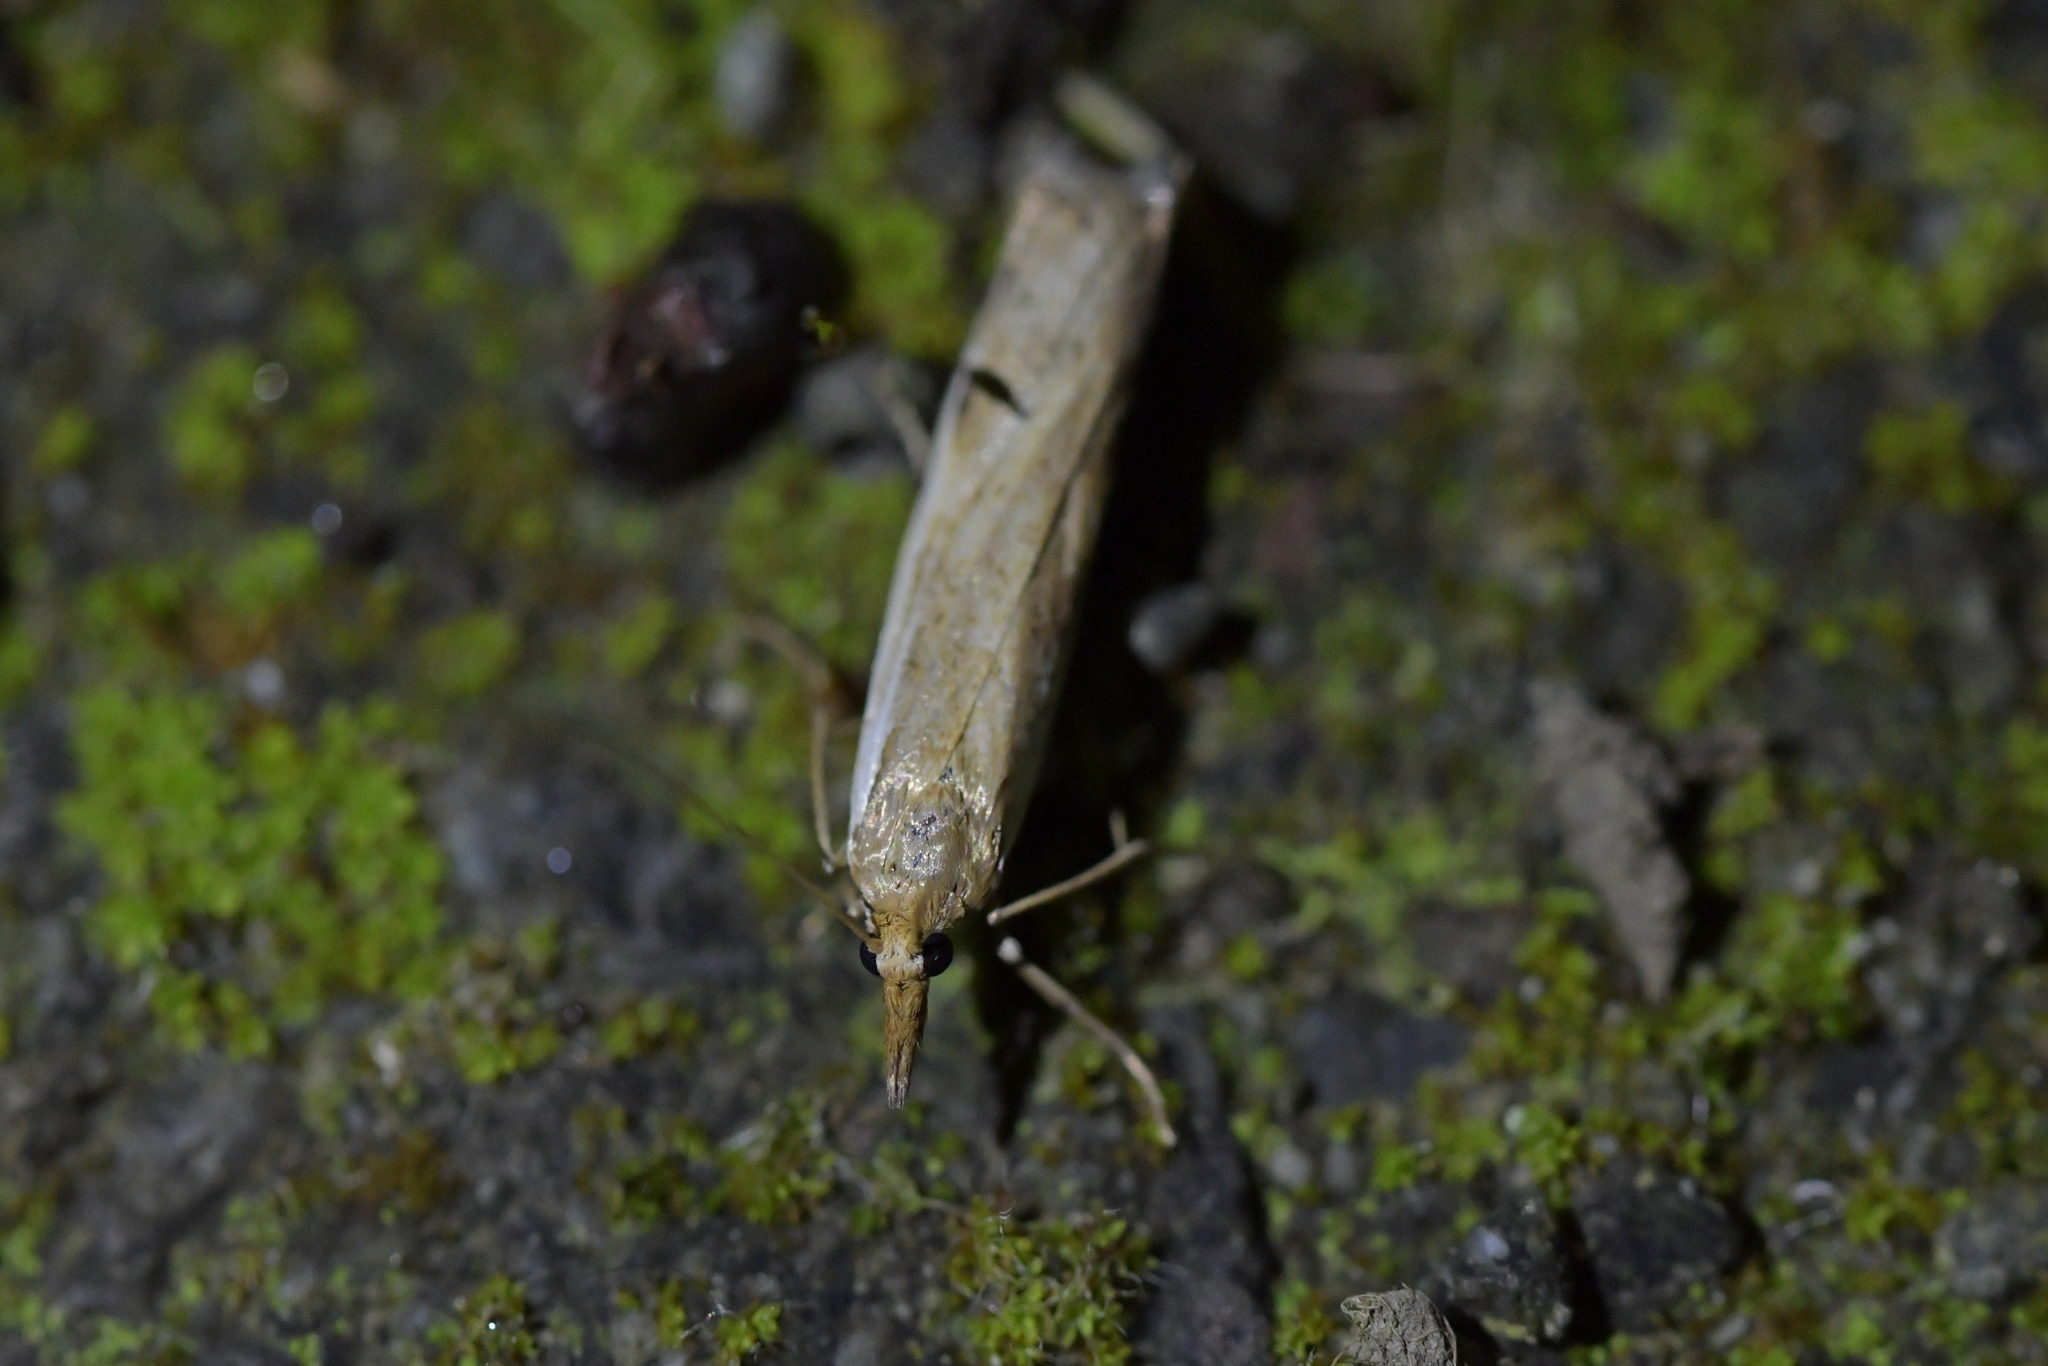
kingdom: Animalia
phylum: Arthropoda
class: Insecta
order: Lepidoptera
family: Crambidae
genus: Orocrambus
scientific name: Orocrambus flexuosellus
